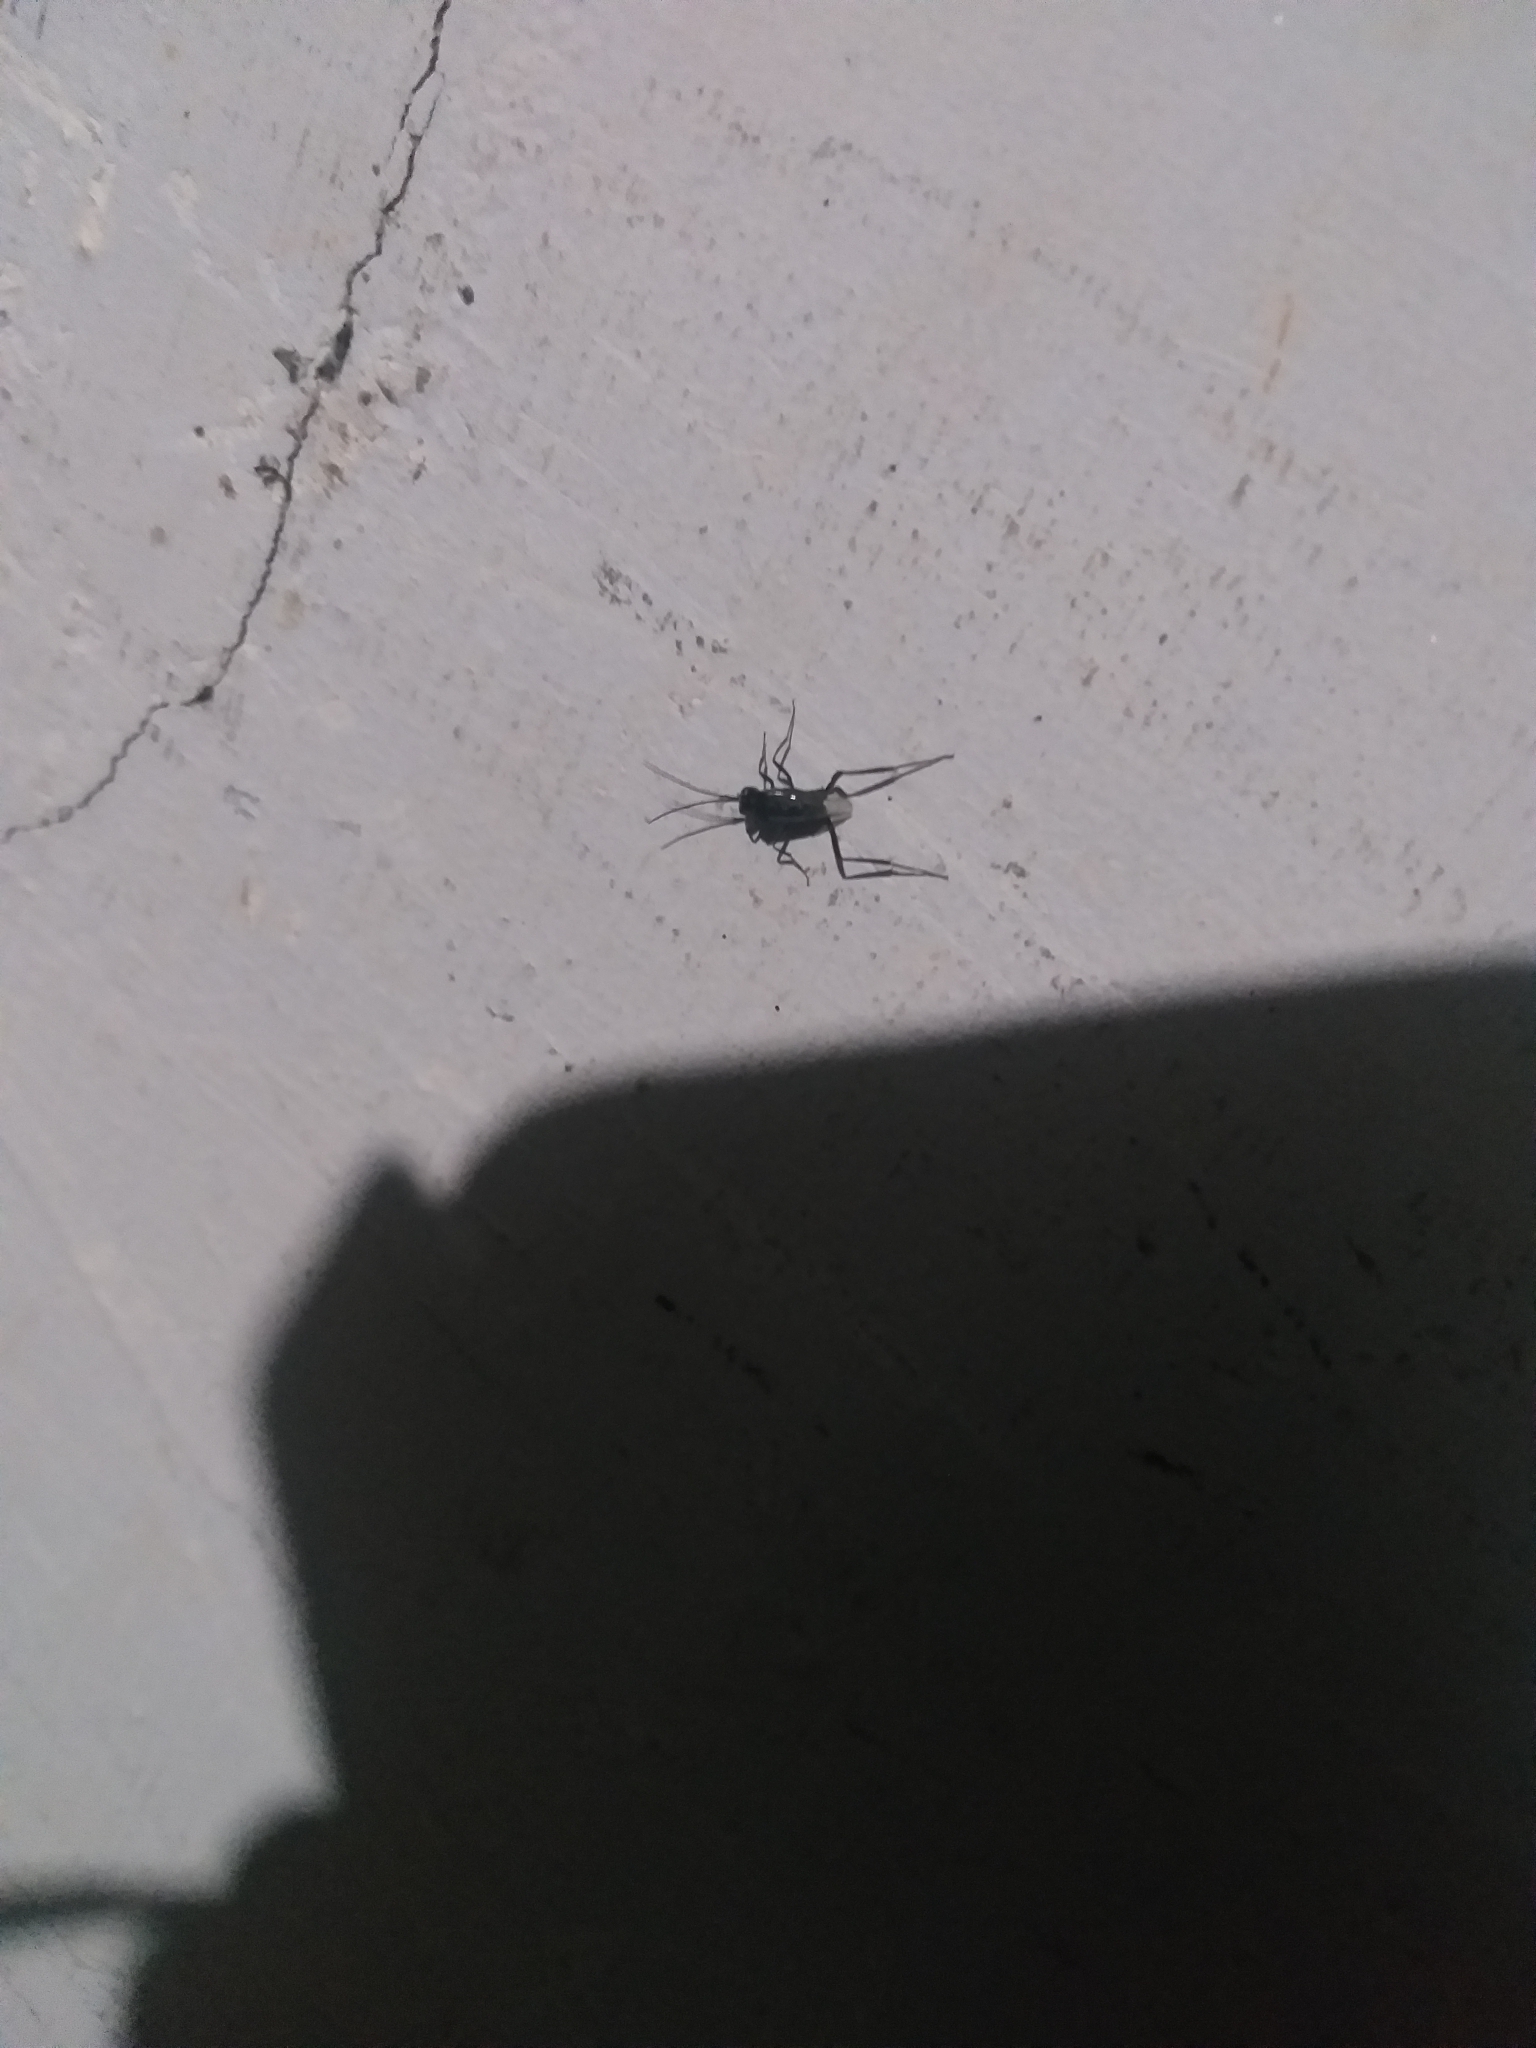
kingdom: Animalia
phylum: Arthropoda
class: Insecta
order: Hymenoptera
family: Evaniidae
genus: Evania
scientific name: Evania appendigaster
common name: Ensign wasp
